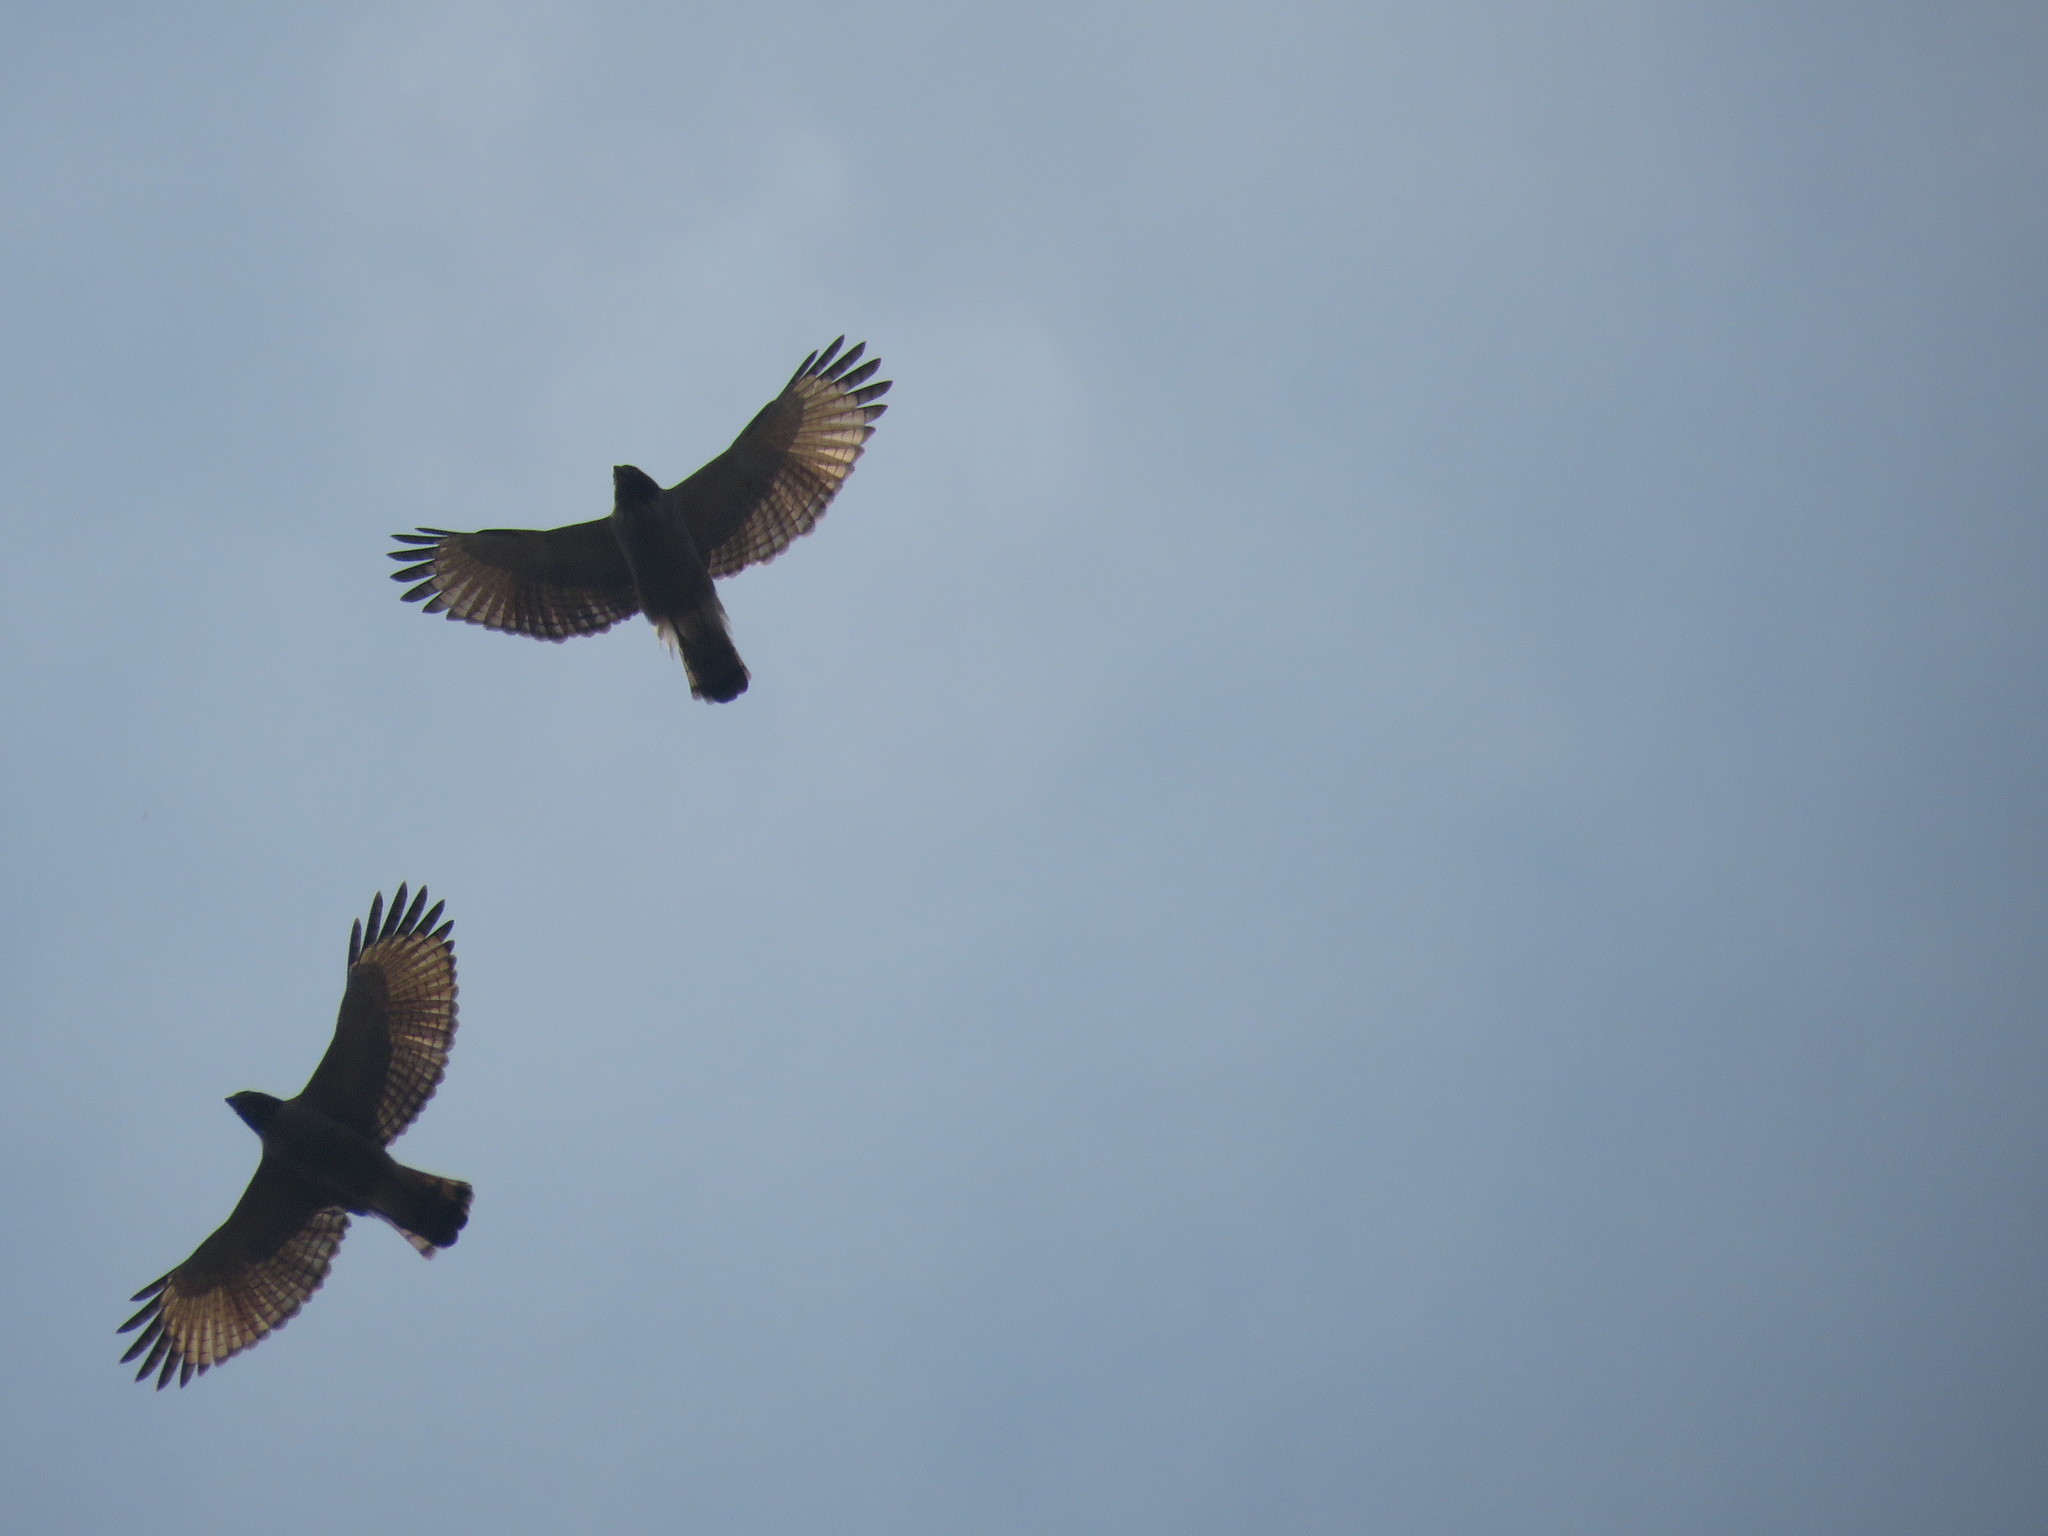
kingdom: Animalia
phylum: Chordata
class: Aves
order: Accipitriformes
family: Accipitridae
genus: Rupornis
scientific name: Rupornis magnirostris
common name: Roadside hawk
